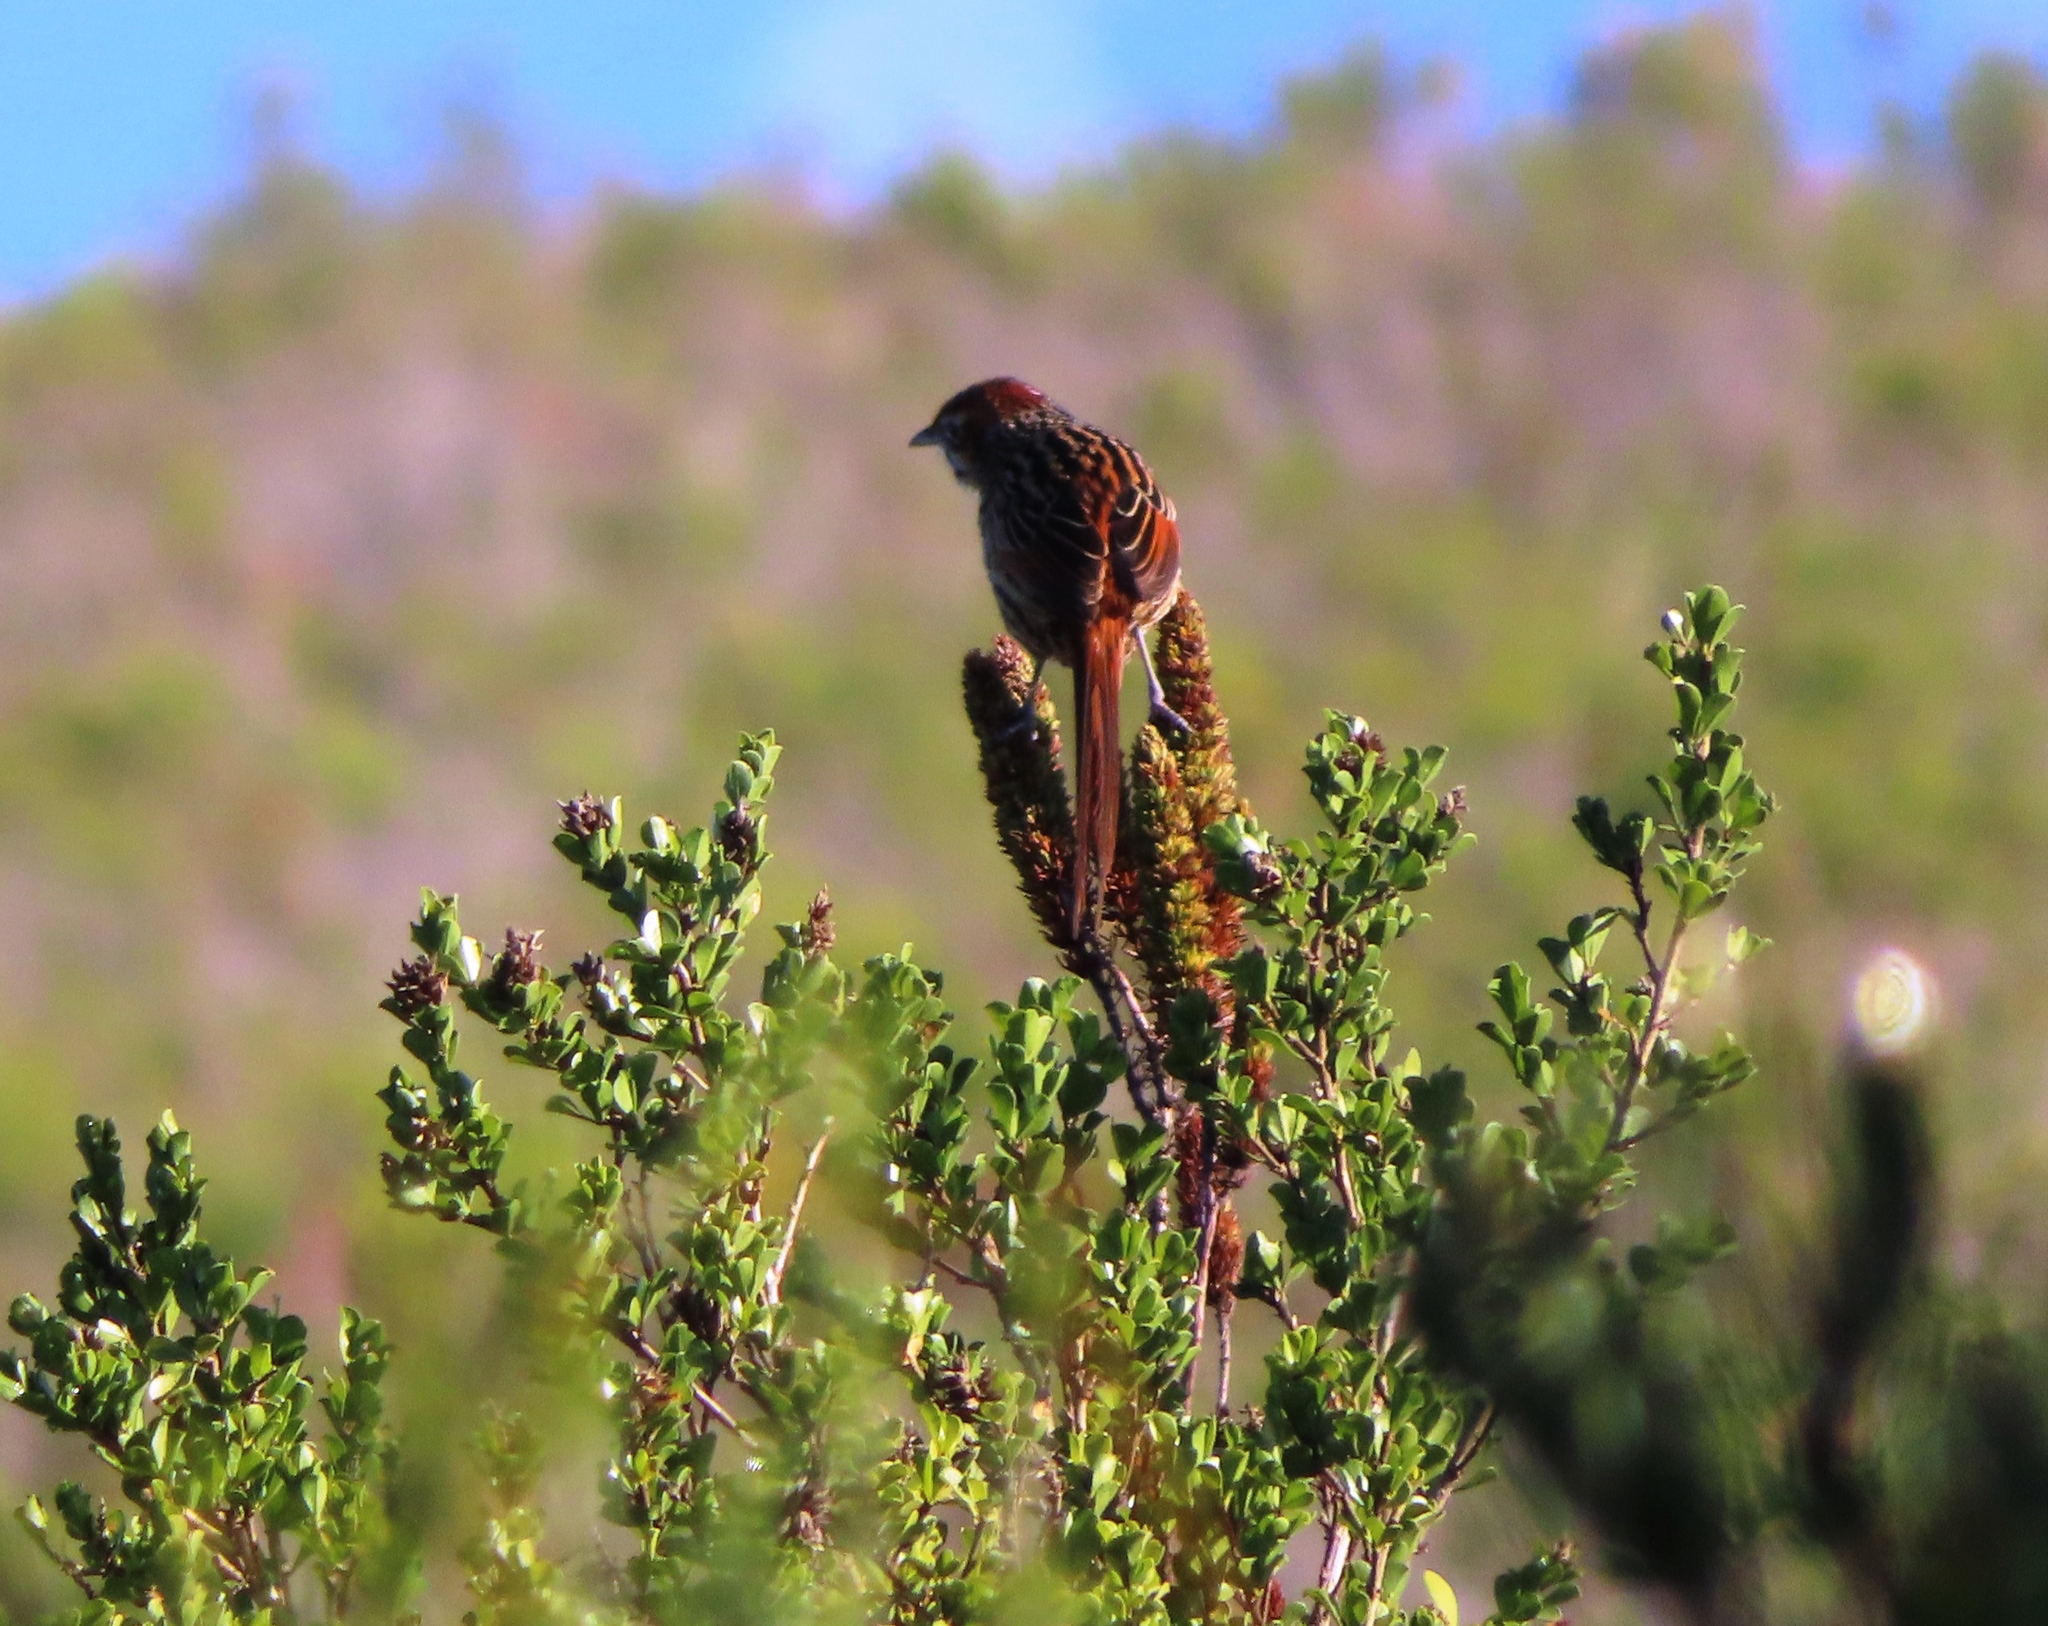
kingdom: Animalia
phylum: Chordata
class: Aves
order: Passeriformes
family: Macrosphenidae
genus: Sphenoeacus
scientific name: Sphenoeacus afer
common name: Cape grassbird
